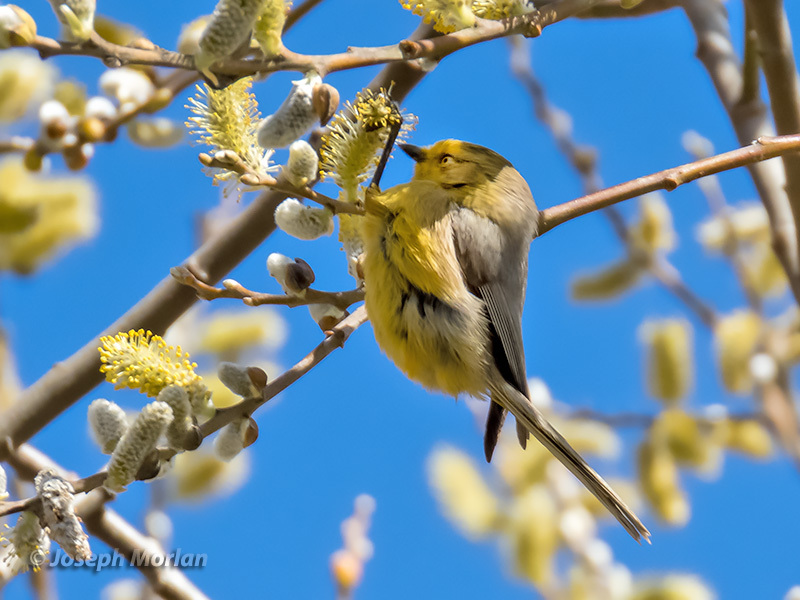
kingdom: Animalia
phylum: Chordata
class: Aves
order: Passeriformes
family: Aegithalidae
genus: Psaltriparus
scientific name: Psaltriparus minimus
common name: American bushtit
